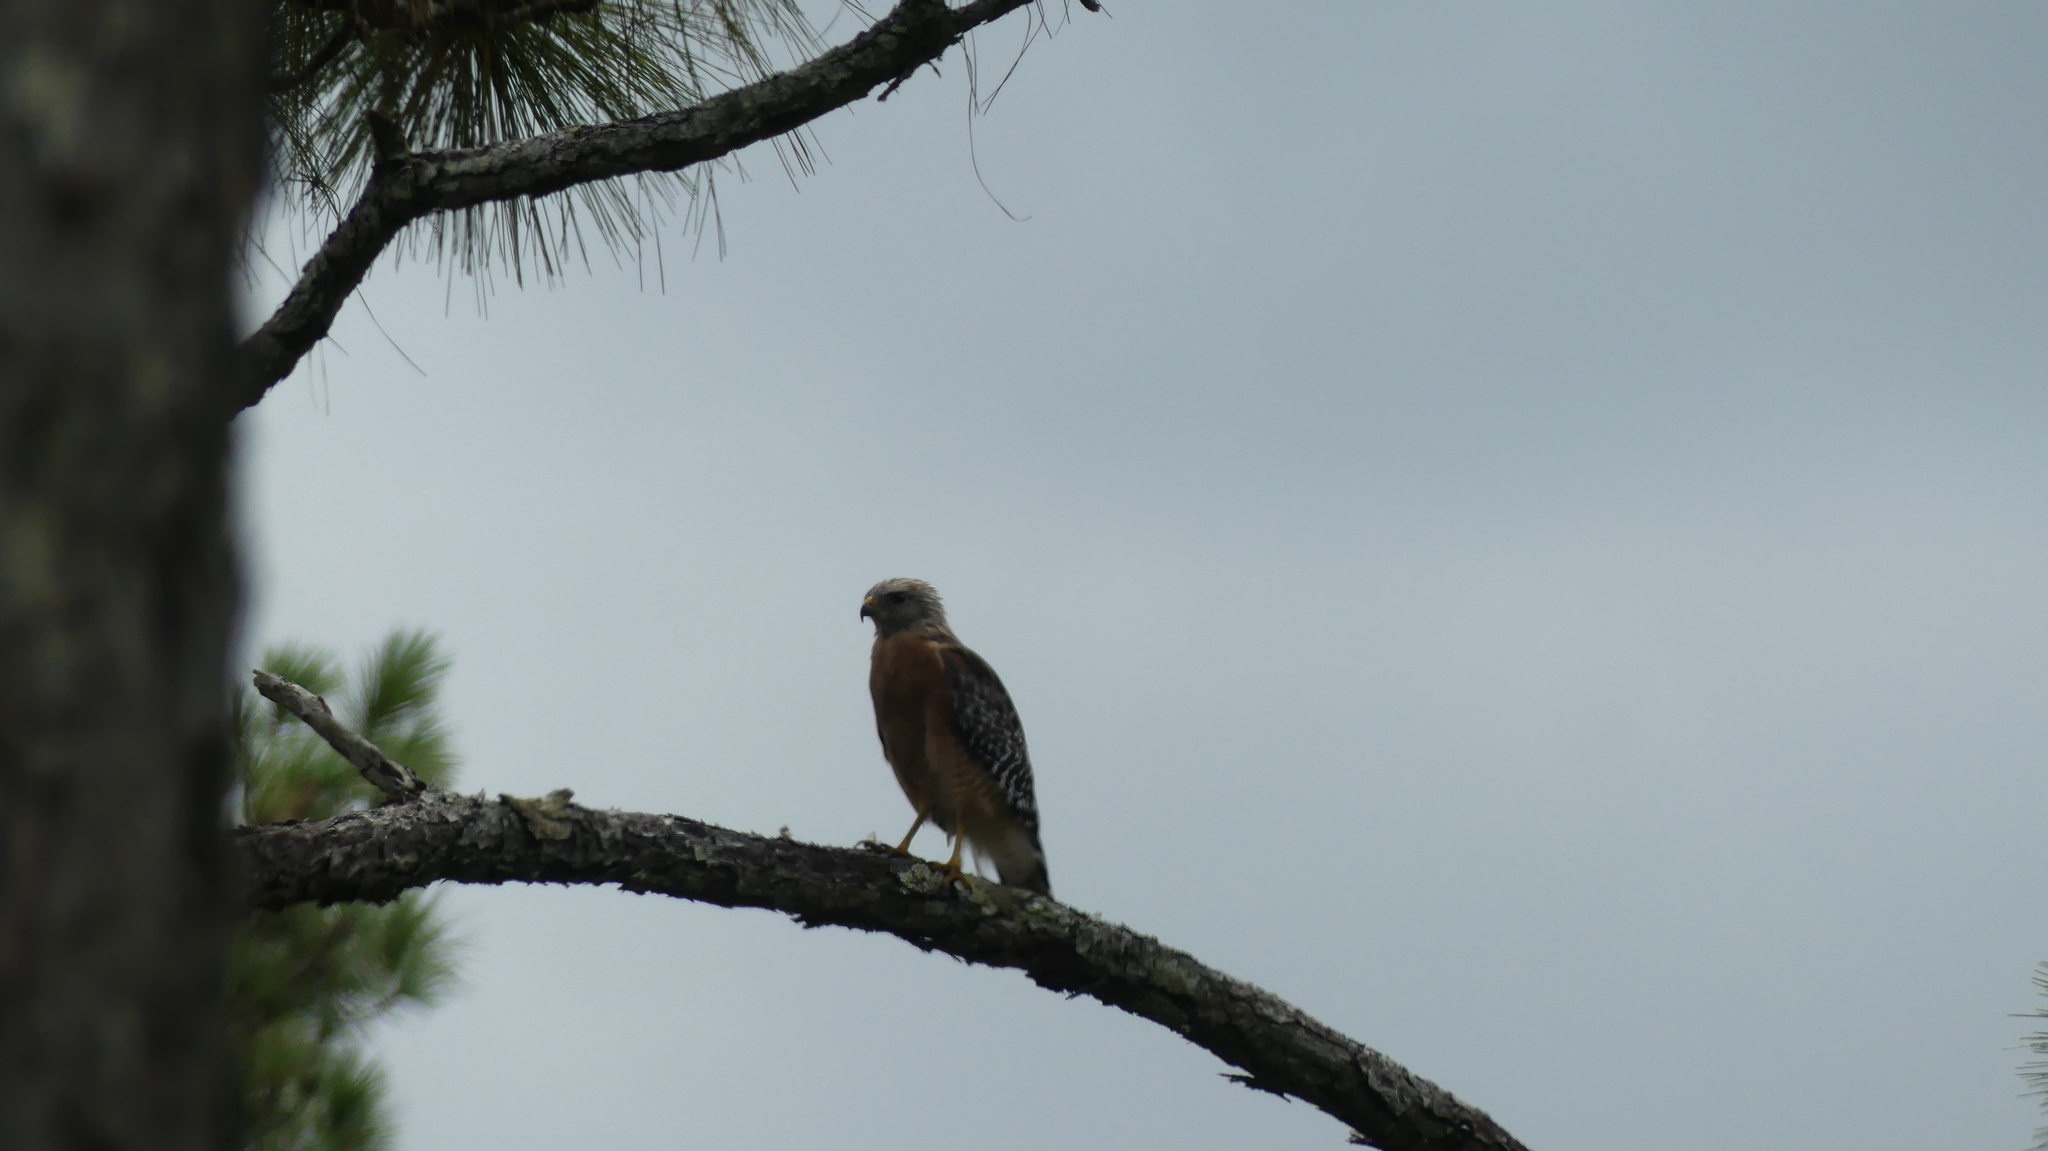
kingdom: Animalia
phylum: Chordata
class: Aves
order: Accipitriformes
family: Accipitridae
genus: Buteo
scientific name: Buteo lineatus
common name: Red-shouldered hawk
